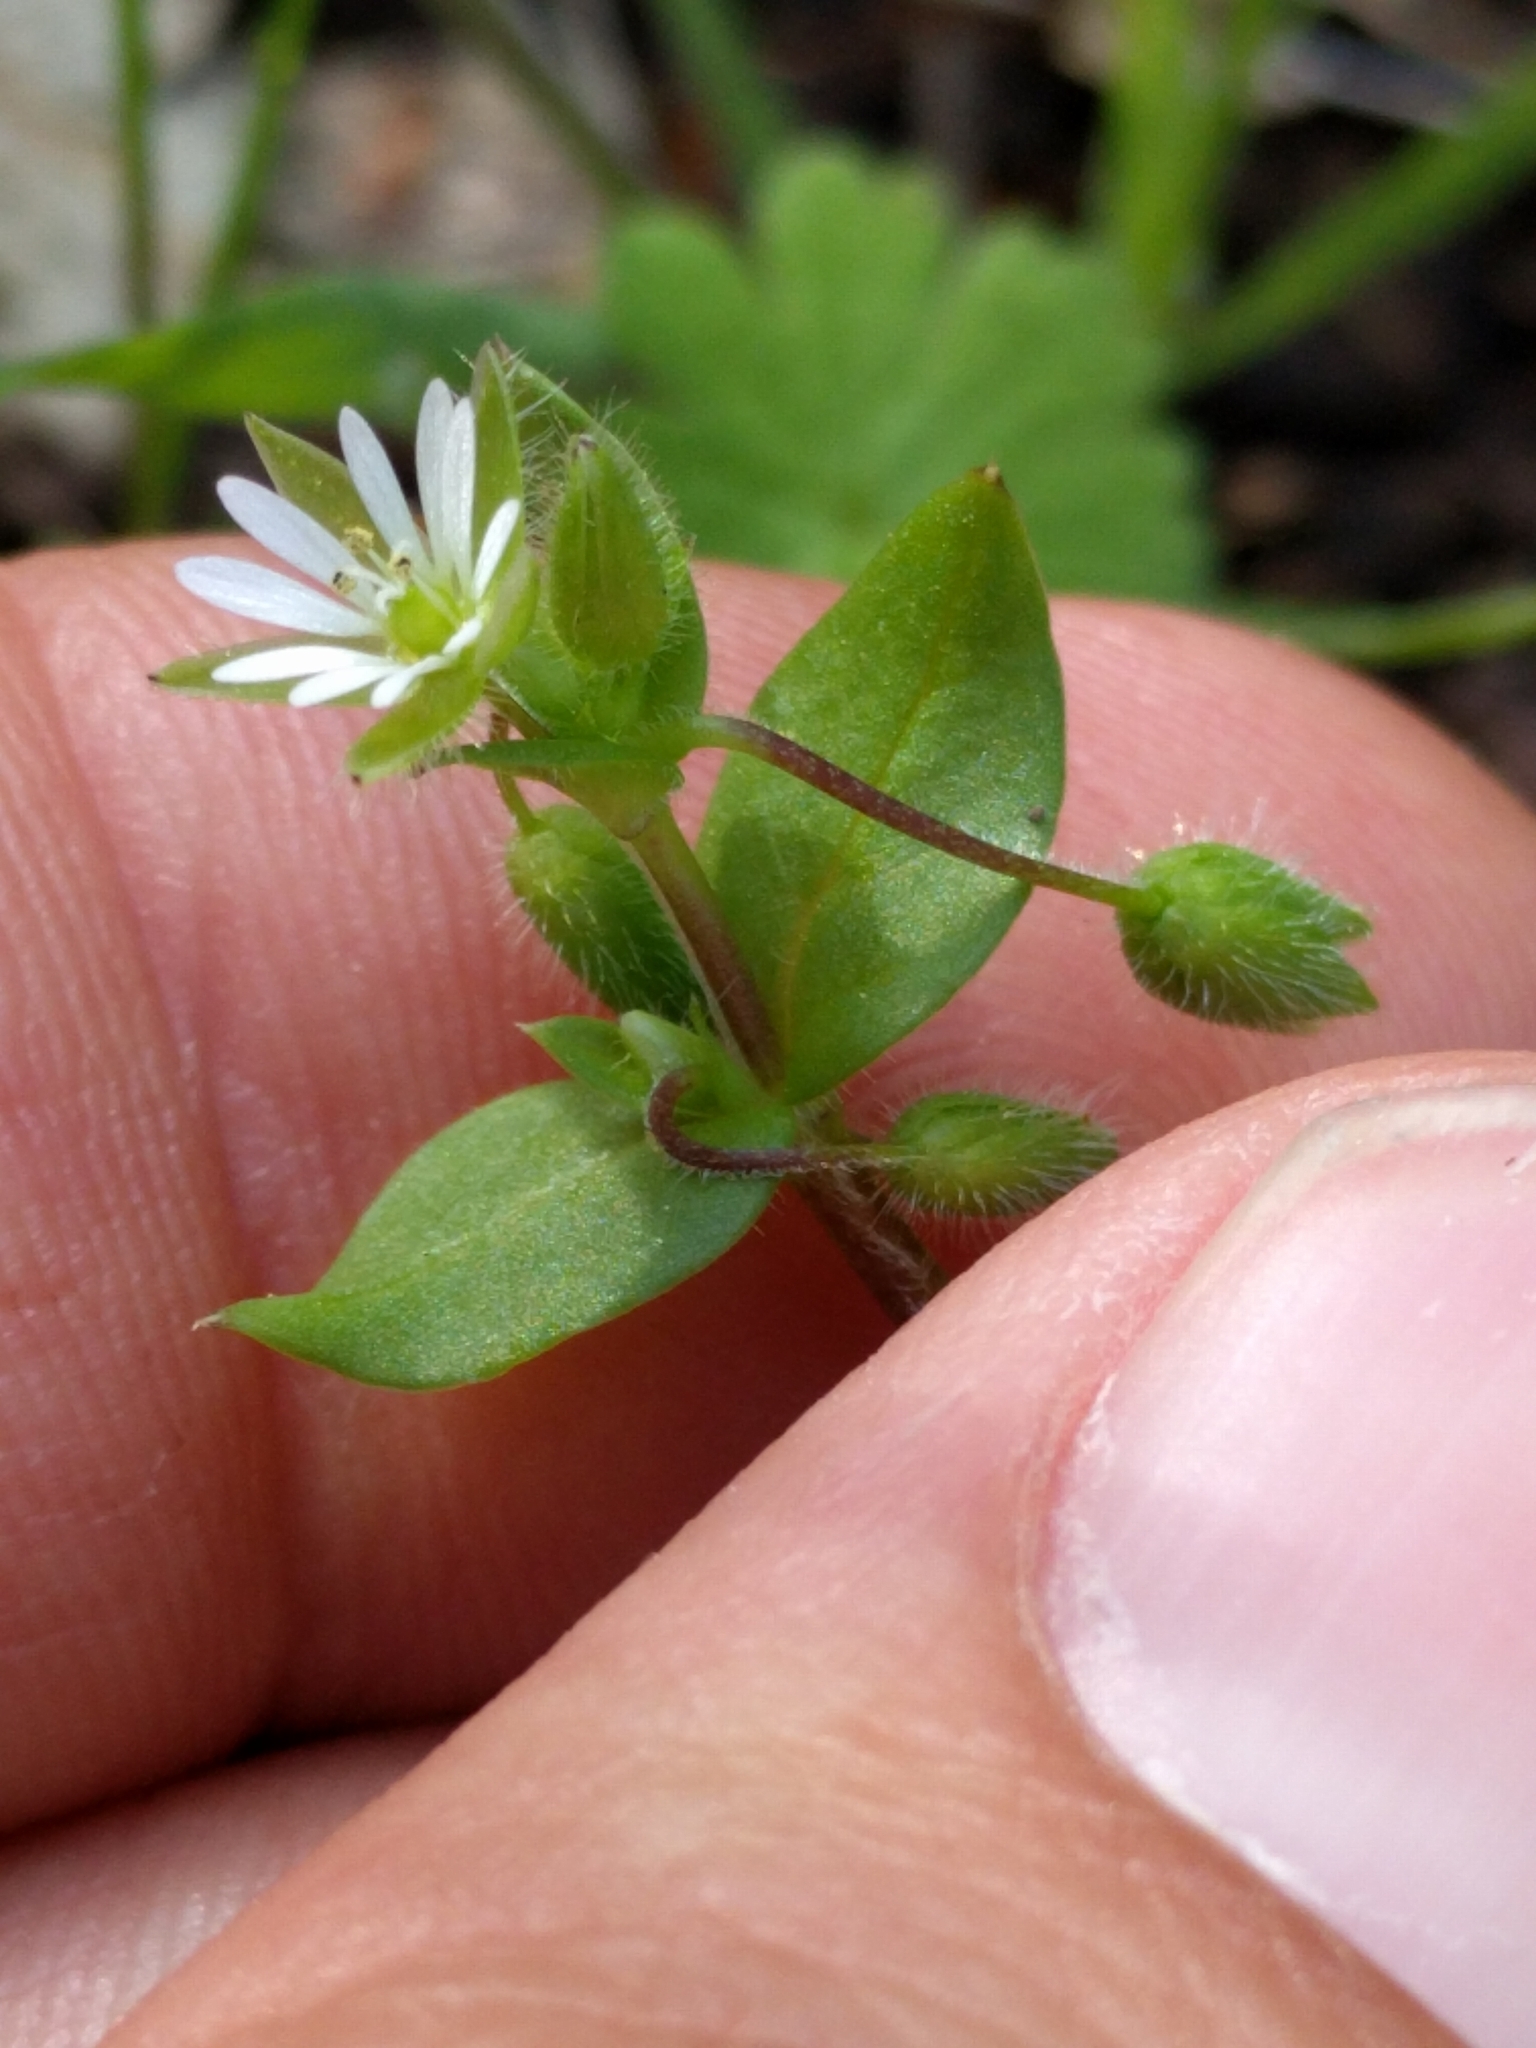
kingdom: Plantae
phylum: Tracheophyta
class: Magnoliopsida
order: Caryophyllales
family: Caryophyllaceae
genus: Stellaria
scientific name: Stellaria media
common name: Common chickweed
